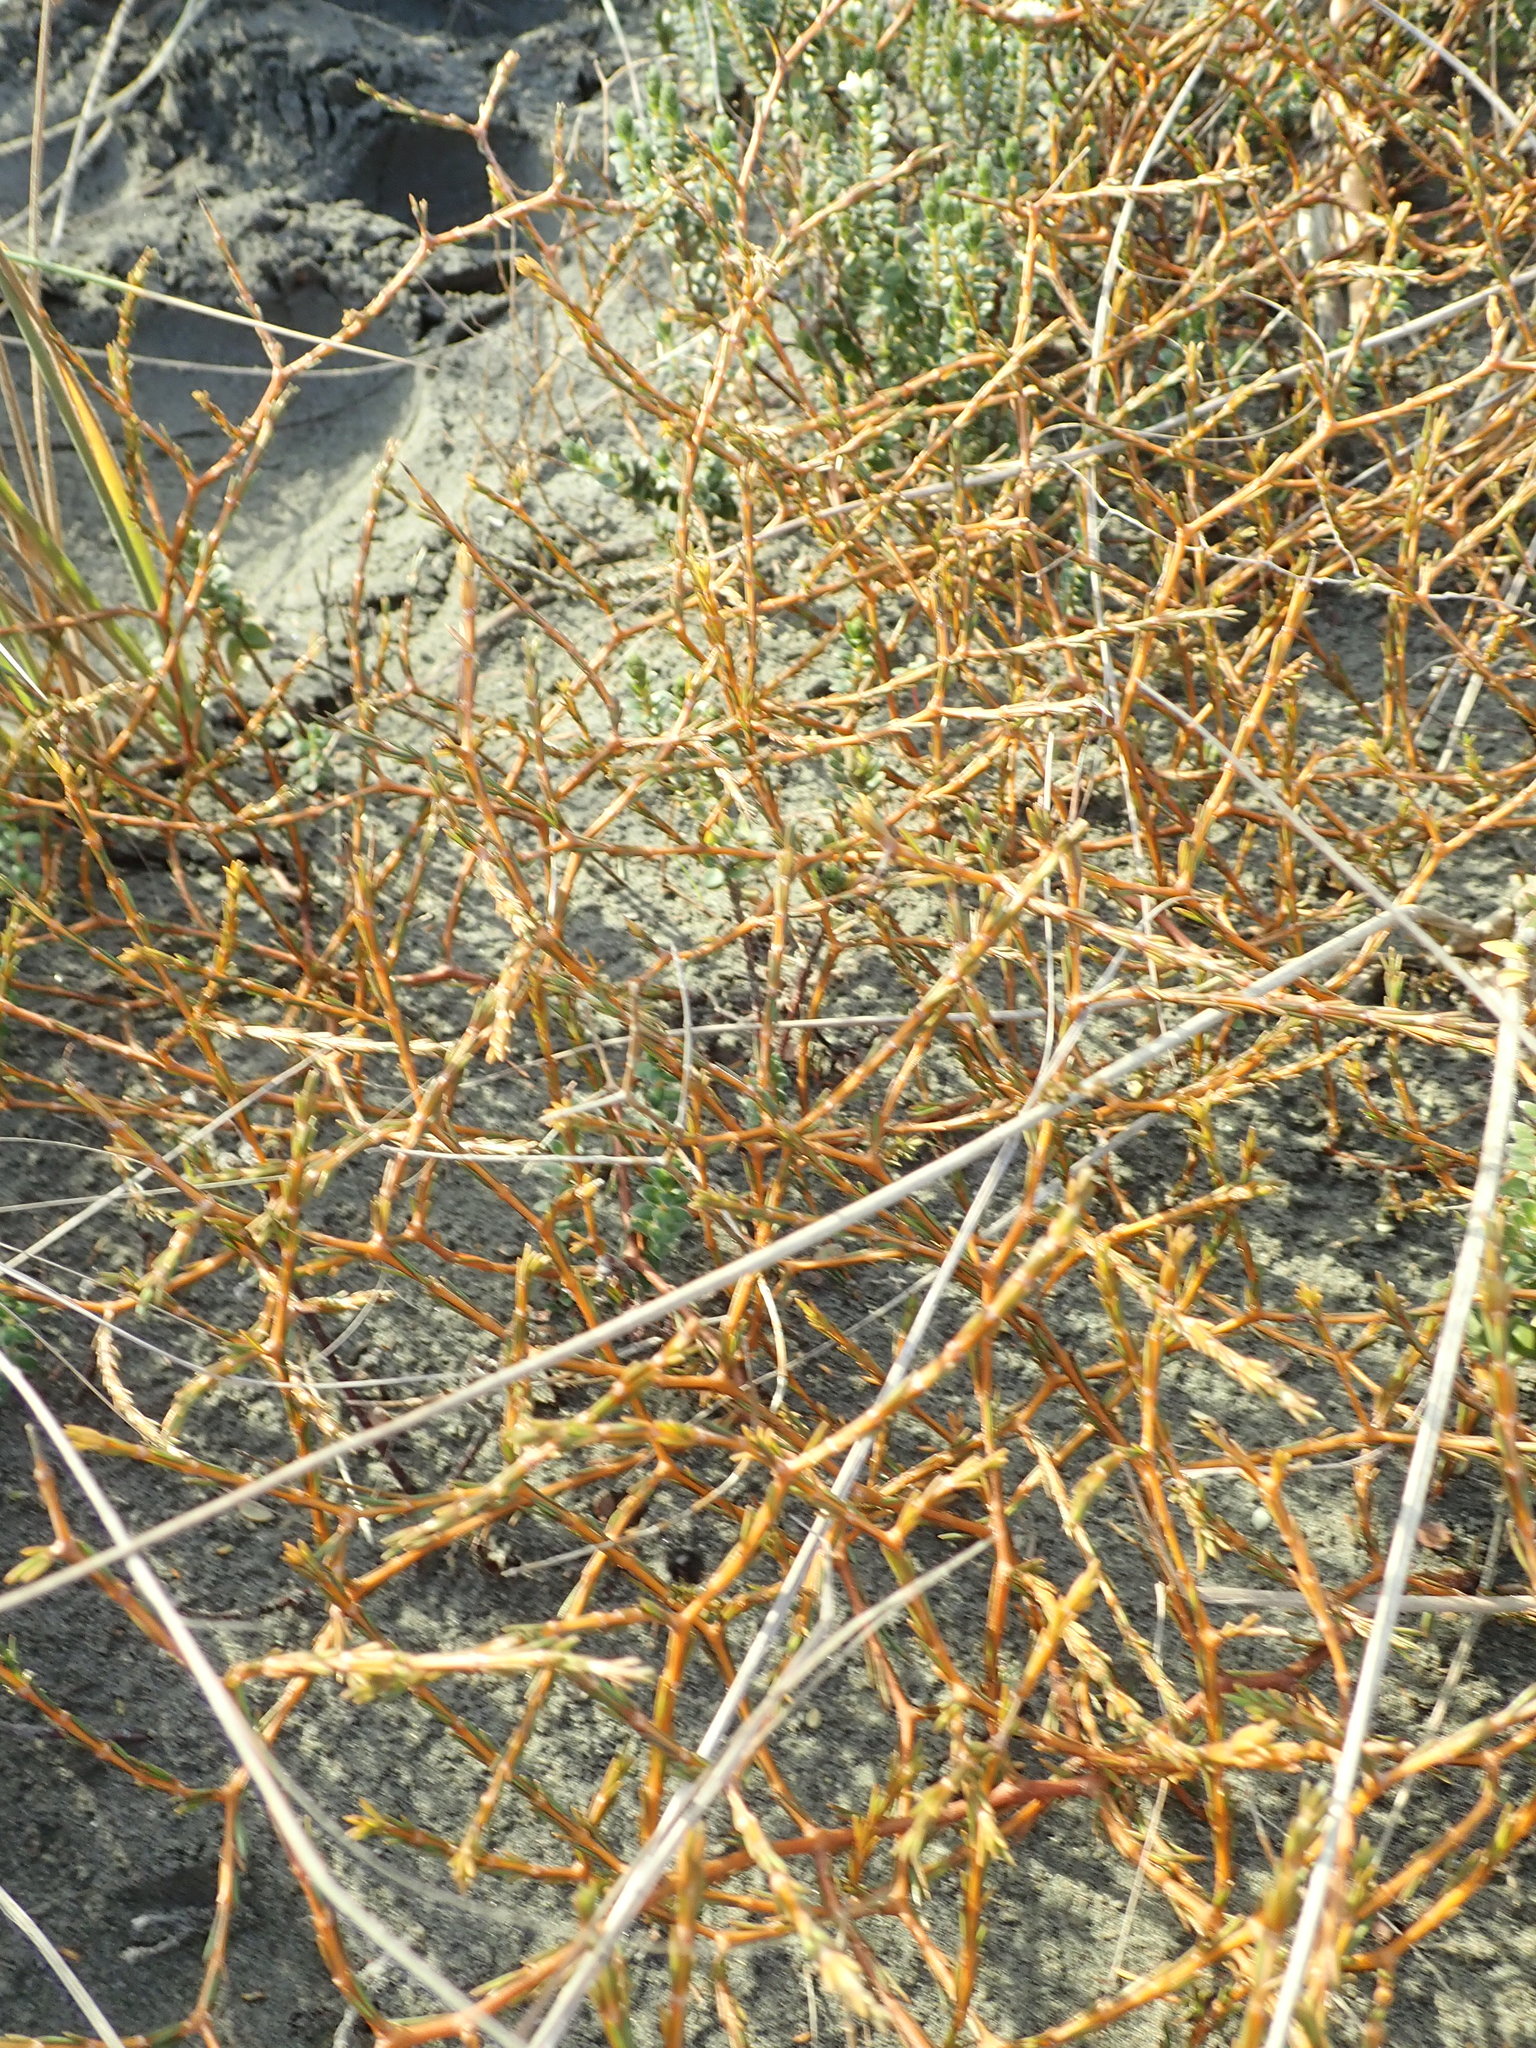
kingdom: Plantae
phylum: Tracheophyta
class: Magnoliopsida
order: Gentianales
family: Rubiaceae
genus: Coprosma
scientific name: Coprosma acerosa
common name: Sand coprosma
